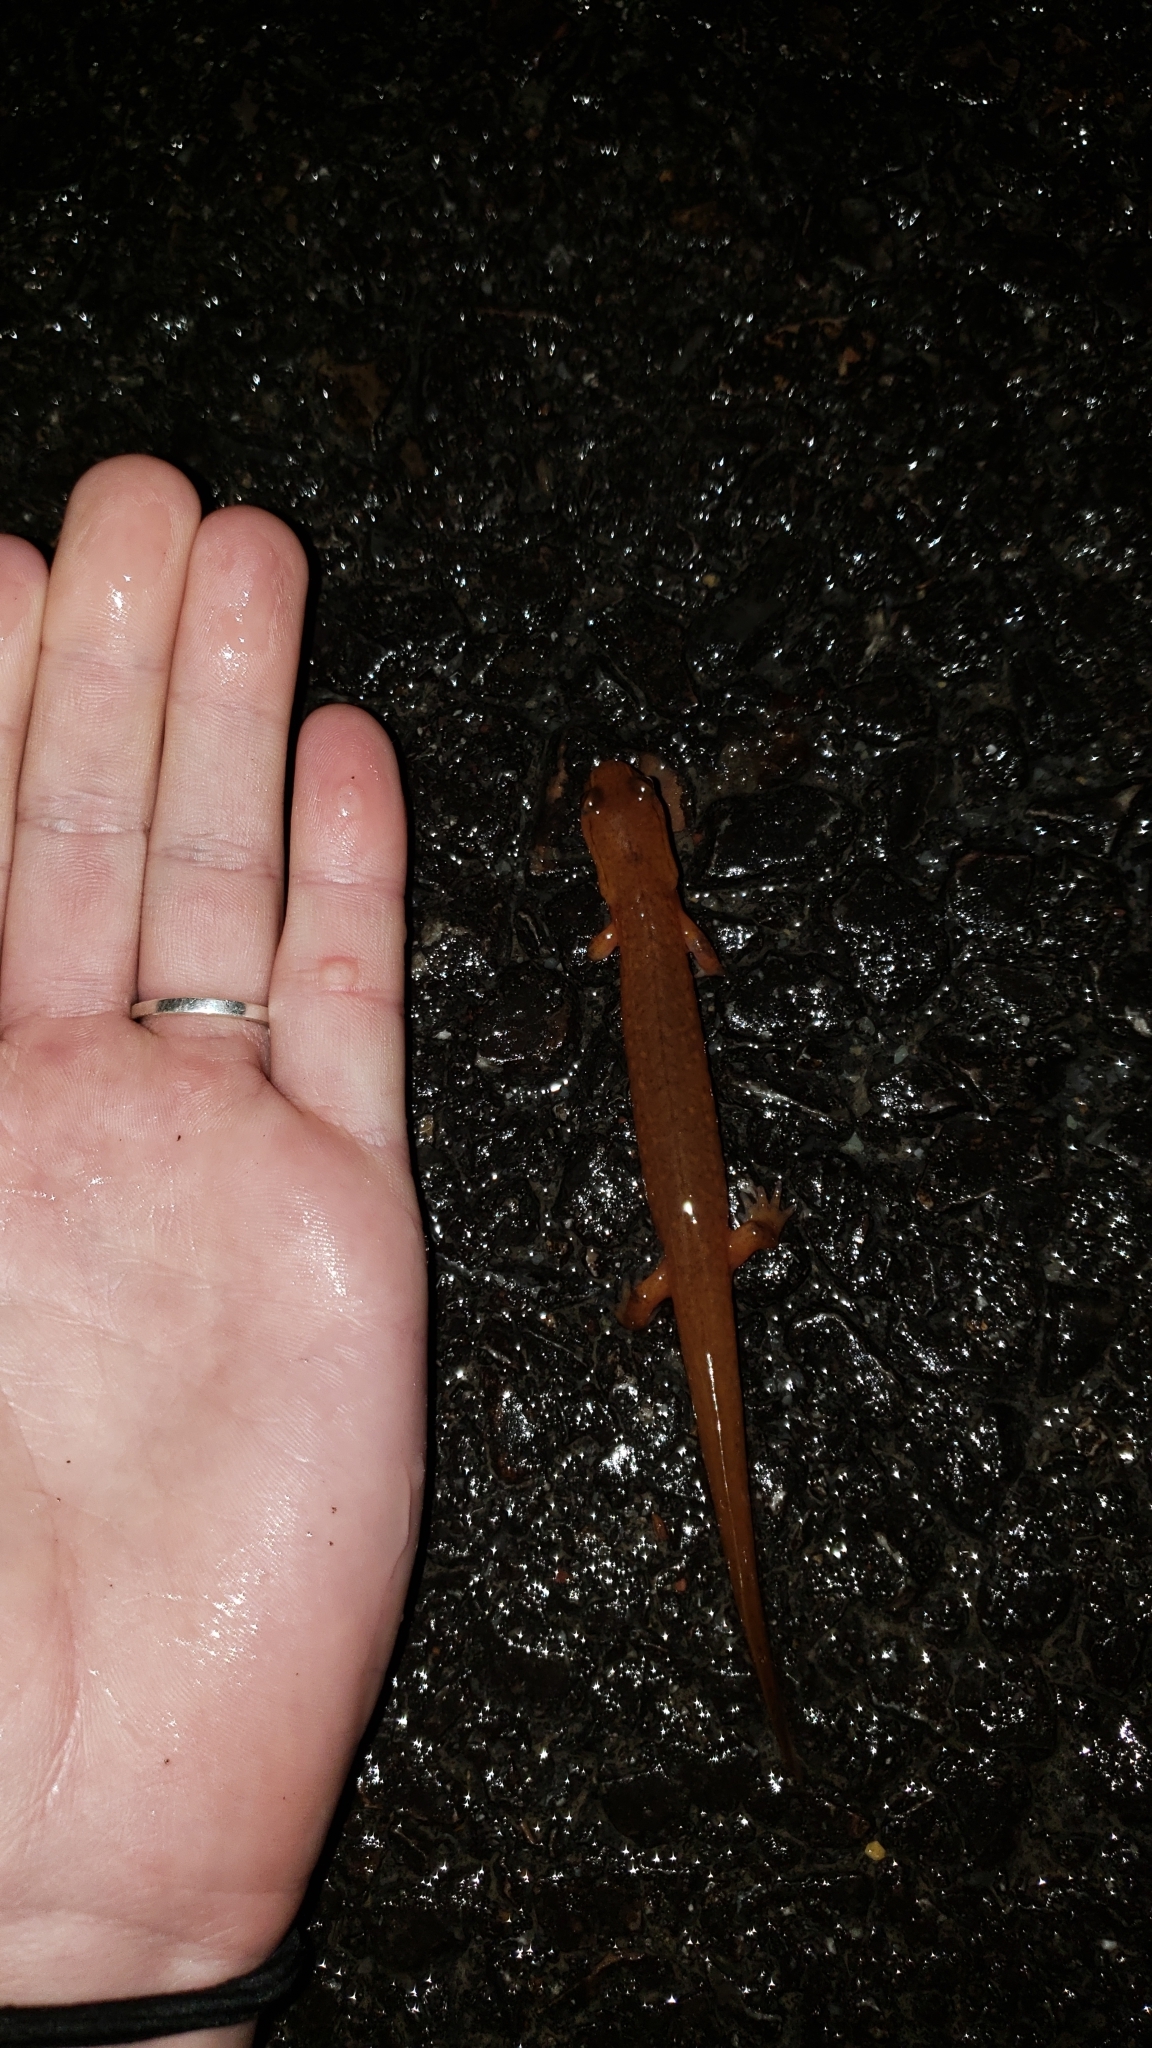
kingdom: Animalia
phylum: Chordata
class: Amphibia
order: Caudata
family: Plethodontidae
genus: Gyrinophilus
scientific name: Gyrinophilus porphyriticus
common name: Spring salamander
